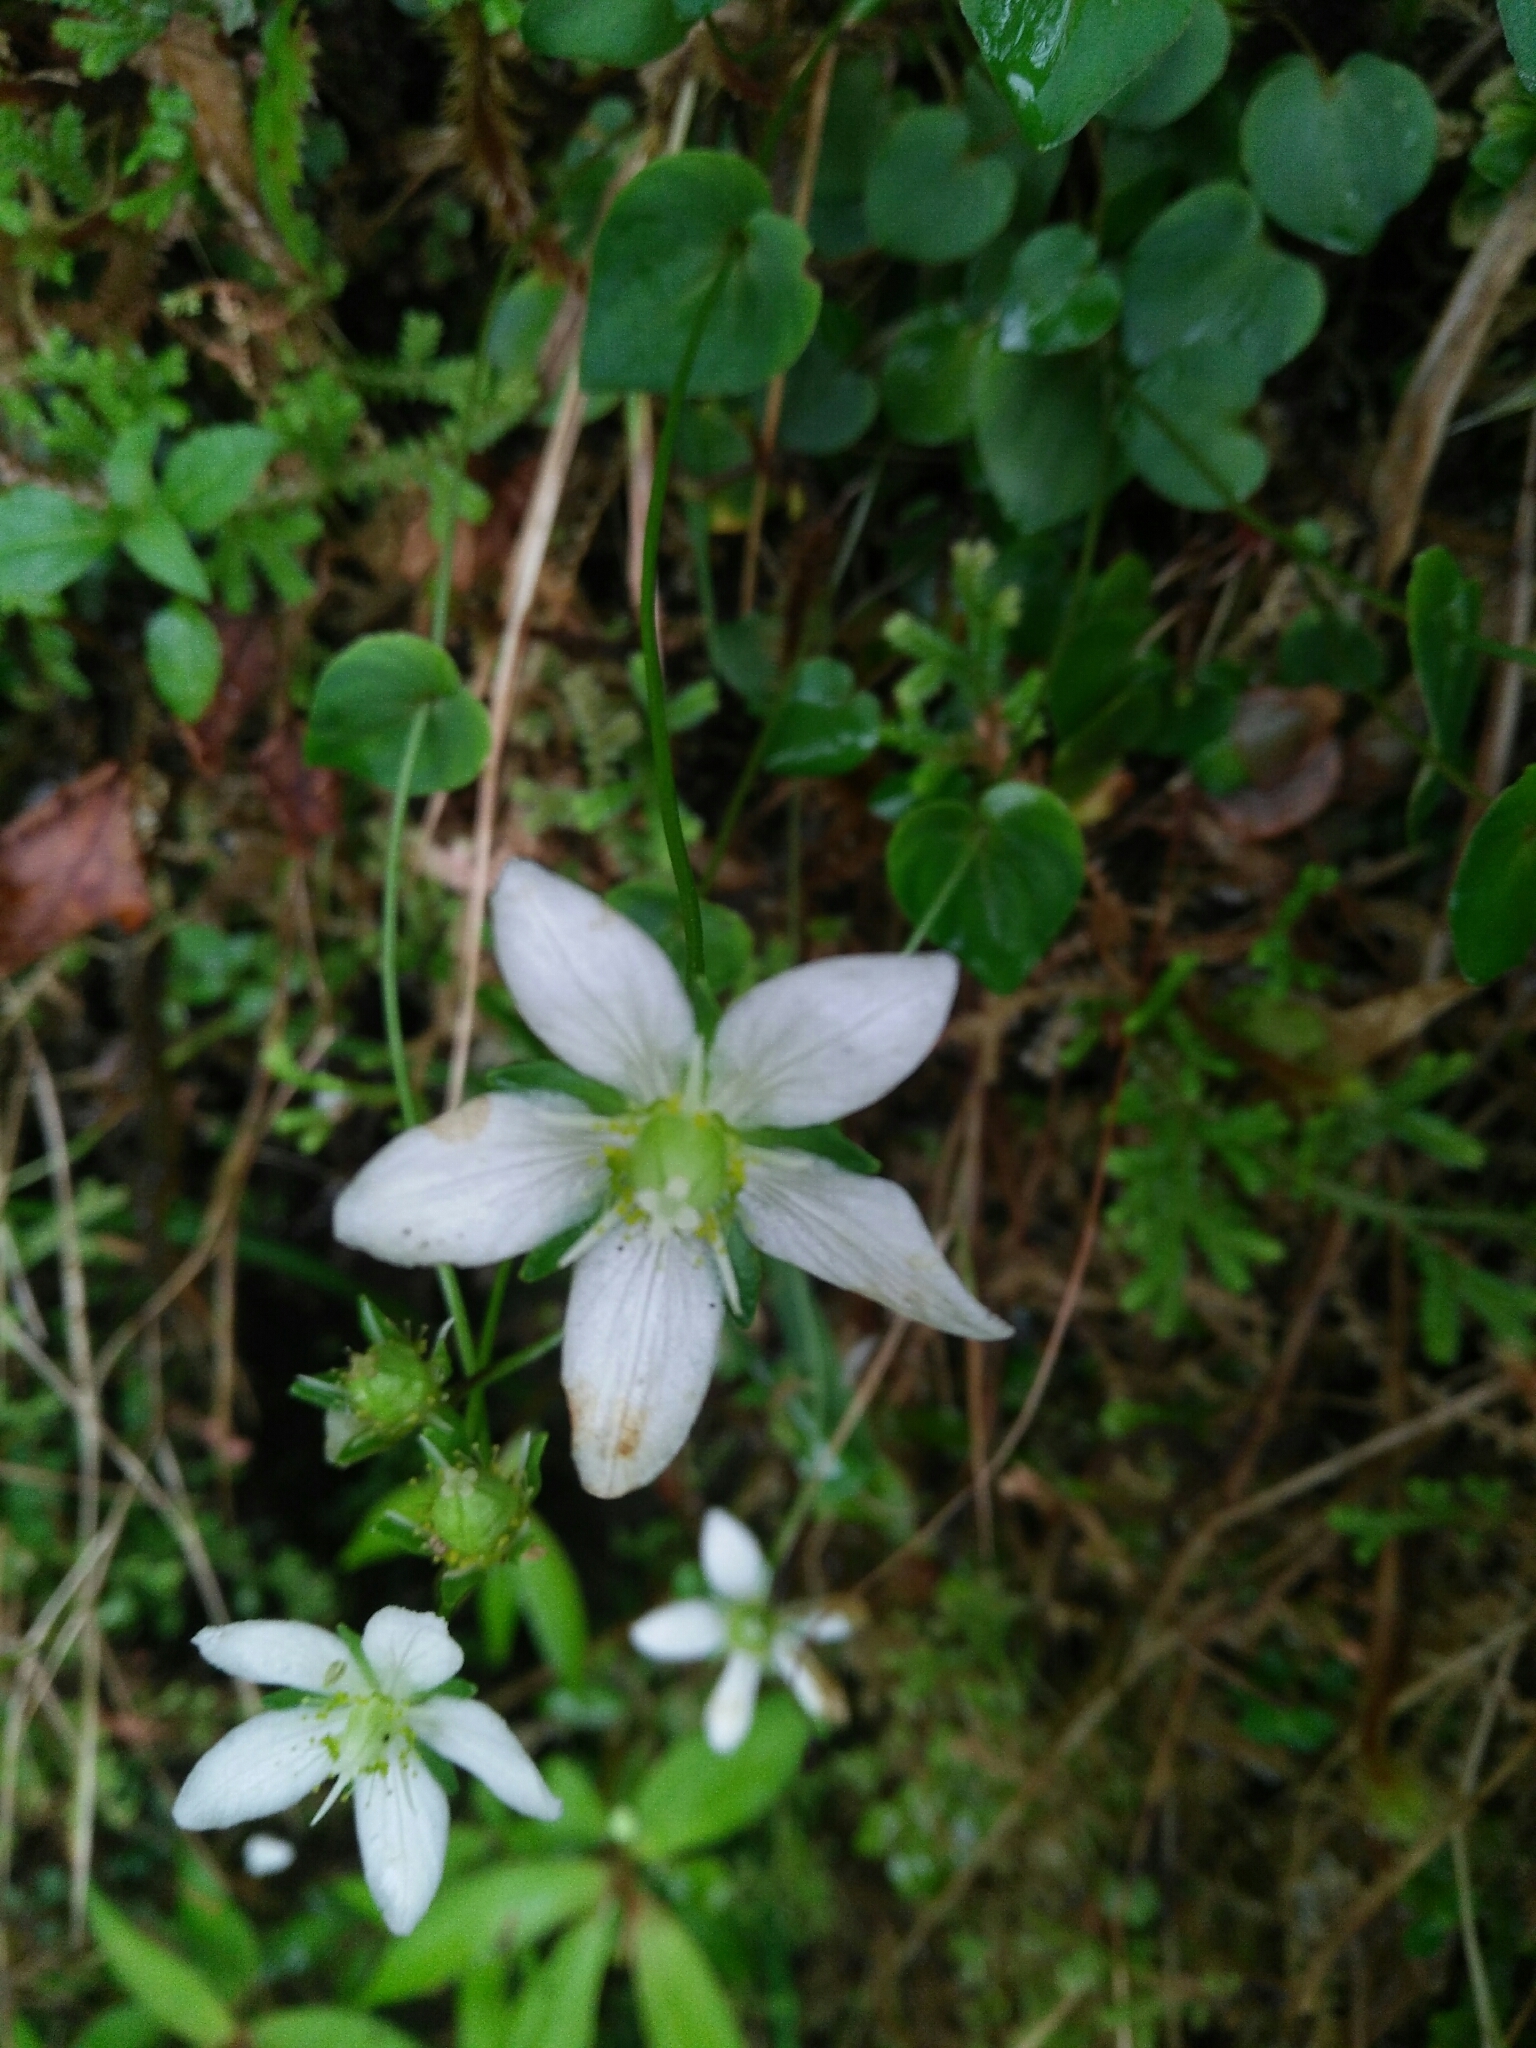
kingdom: Plantae
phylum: Tracheophyta
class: Magnoliopsida
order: Celastrales
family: Parnassiaceae
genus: Parnassia
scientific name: Parnassia palustris
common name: Grass-of-parnassus
